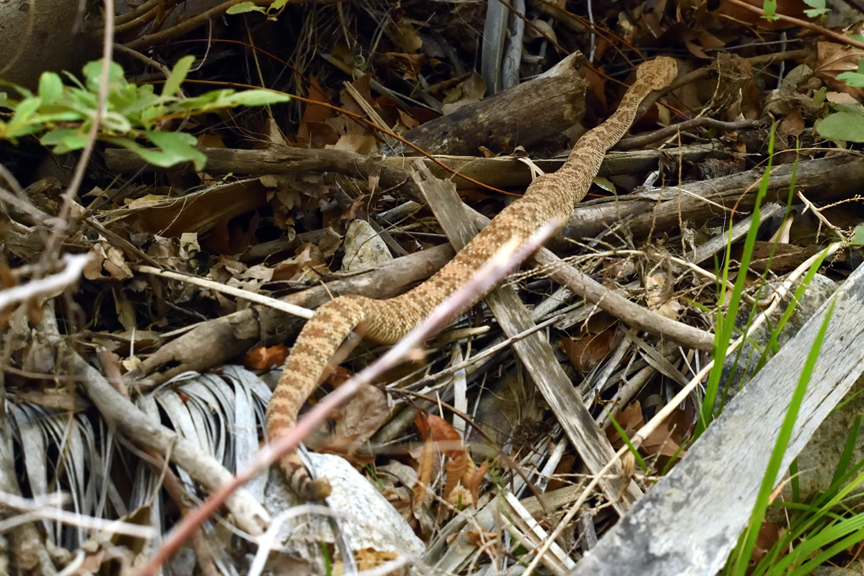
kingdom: Animalia
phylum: Chordata
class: Squamata
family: Viperidae
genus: Crotalus
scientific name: Crotalus pyrrhus
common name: Southwestern speckled rattlesnake
